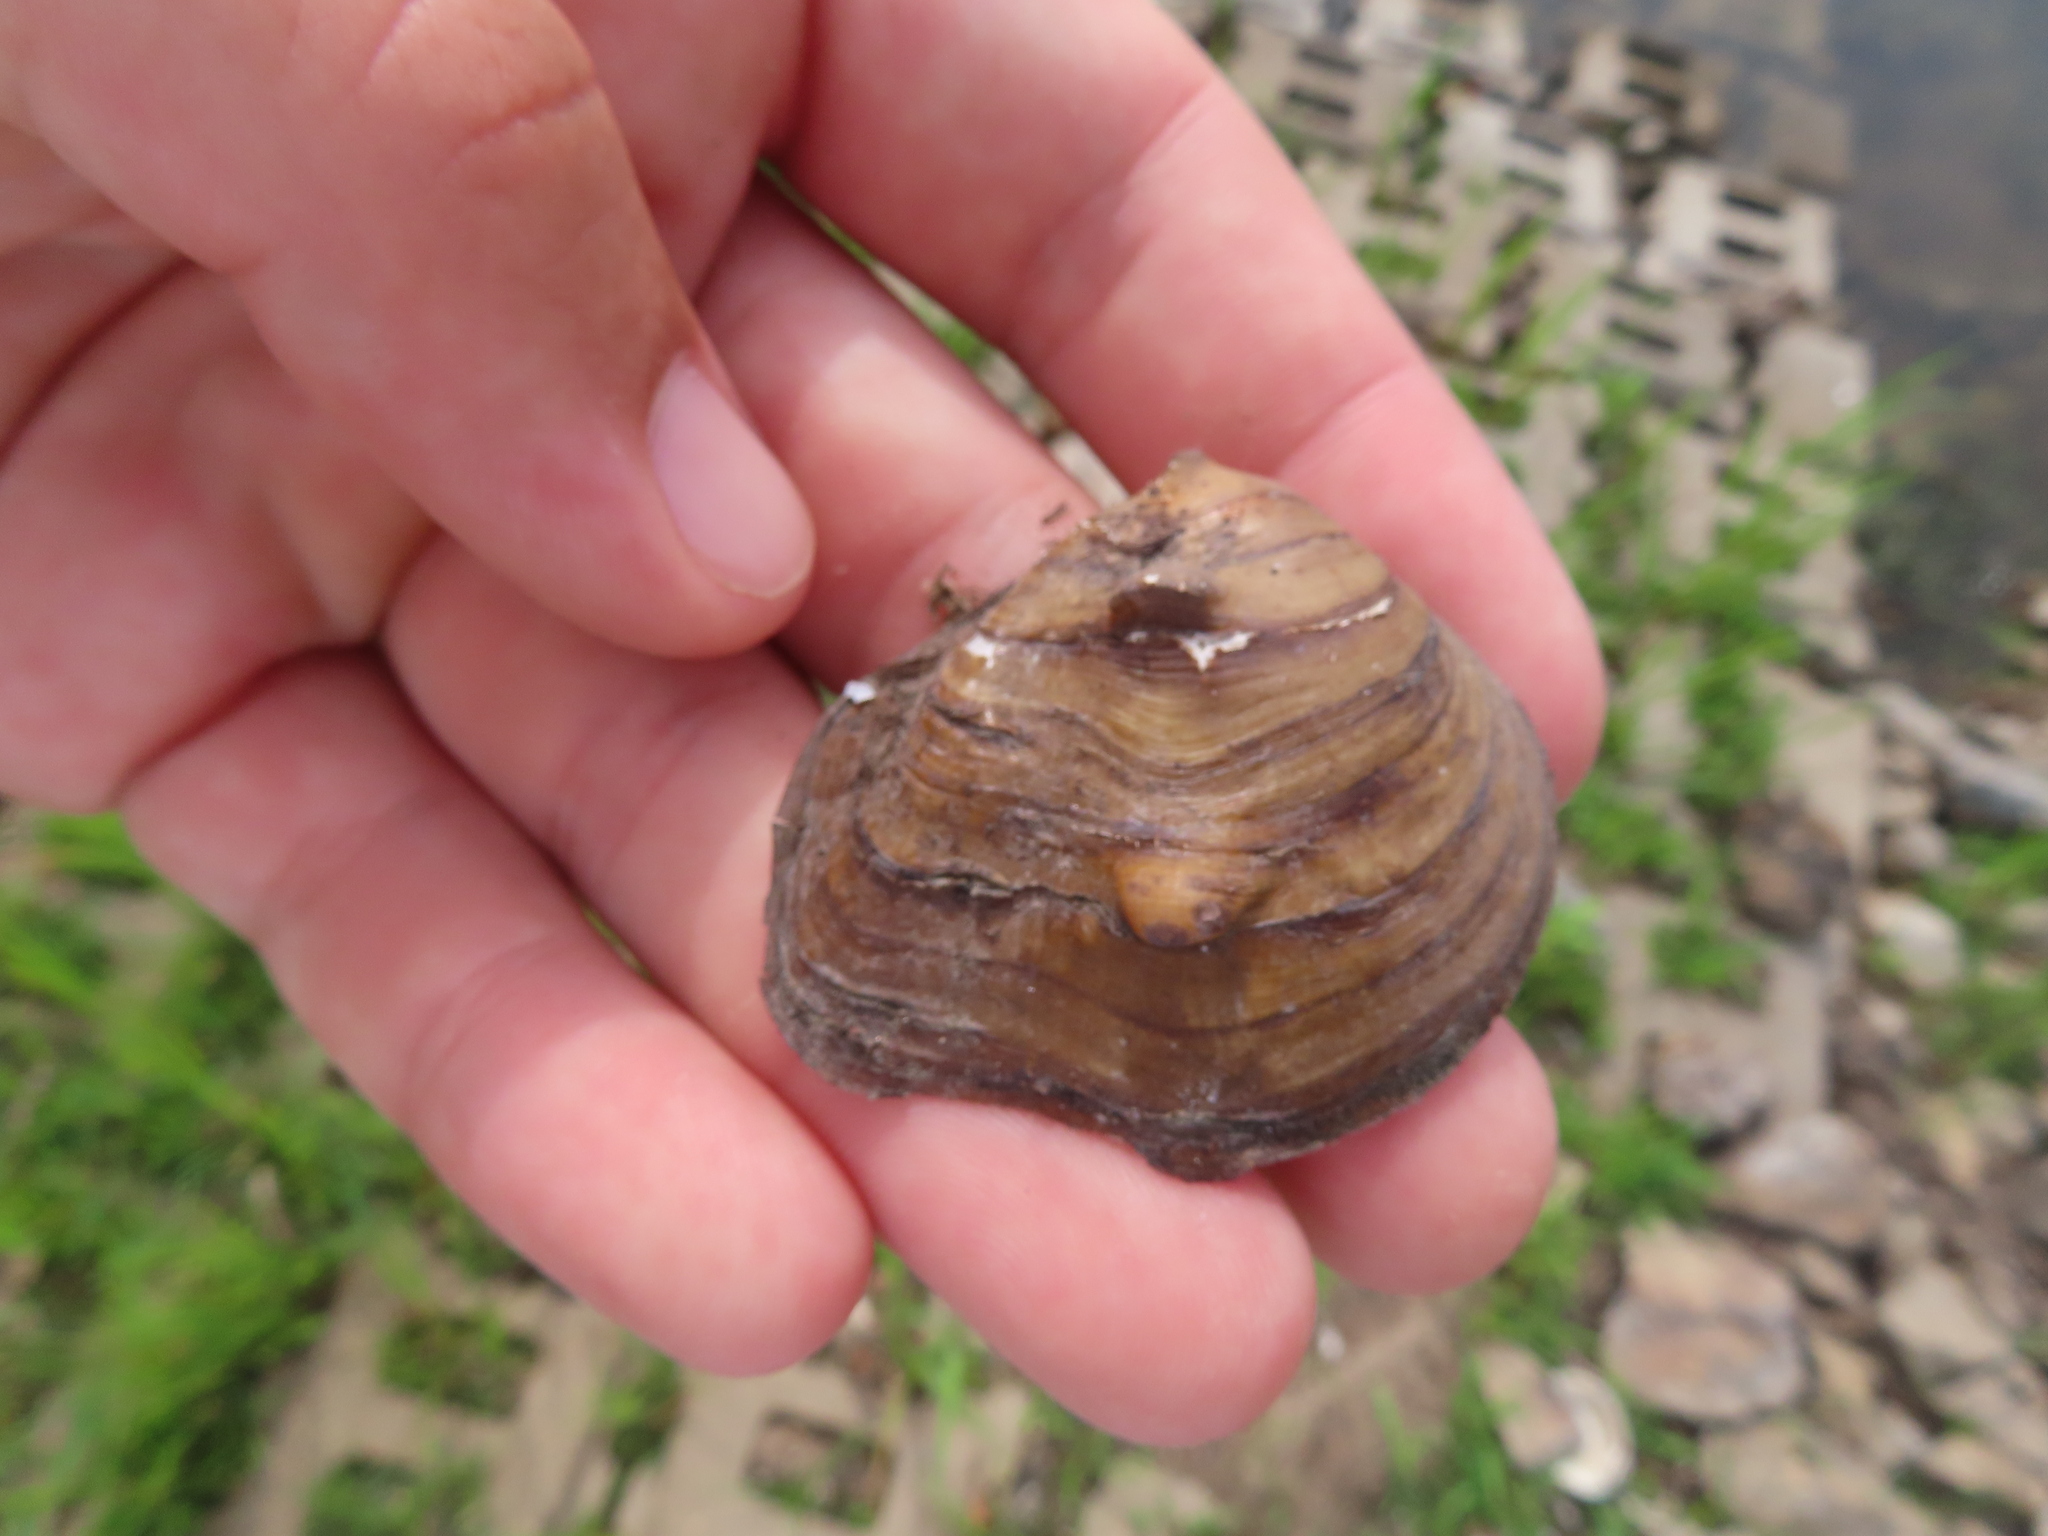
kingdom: Animalia
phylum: Mollusca
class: Bivalvia
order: Unionida
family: Unionidae
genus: Obliquaria
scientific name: Obliquaria reflexa
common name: Threehorn wartyback
